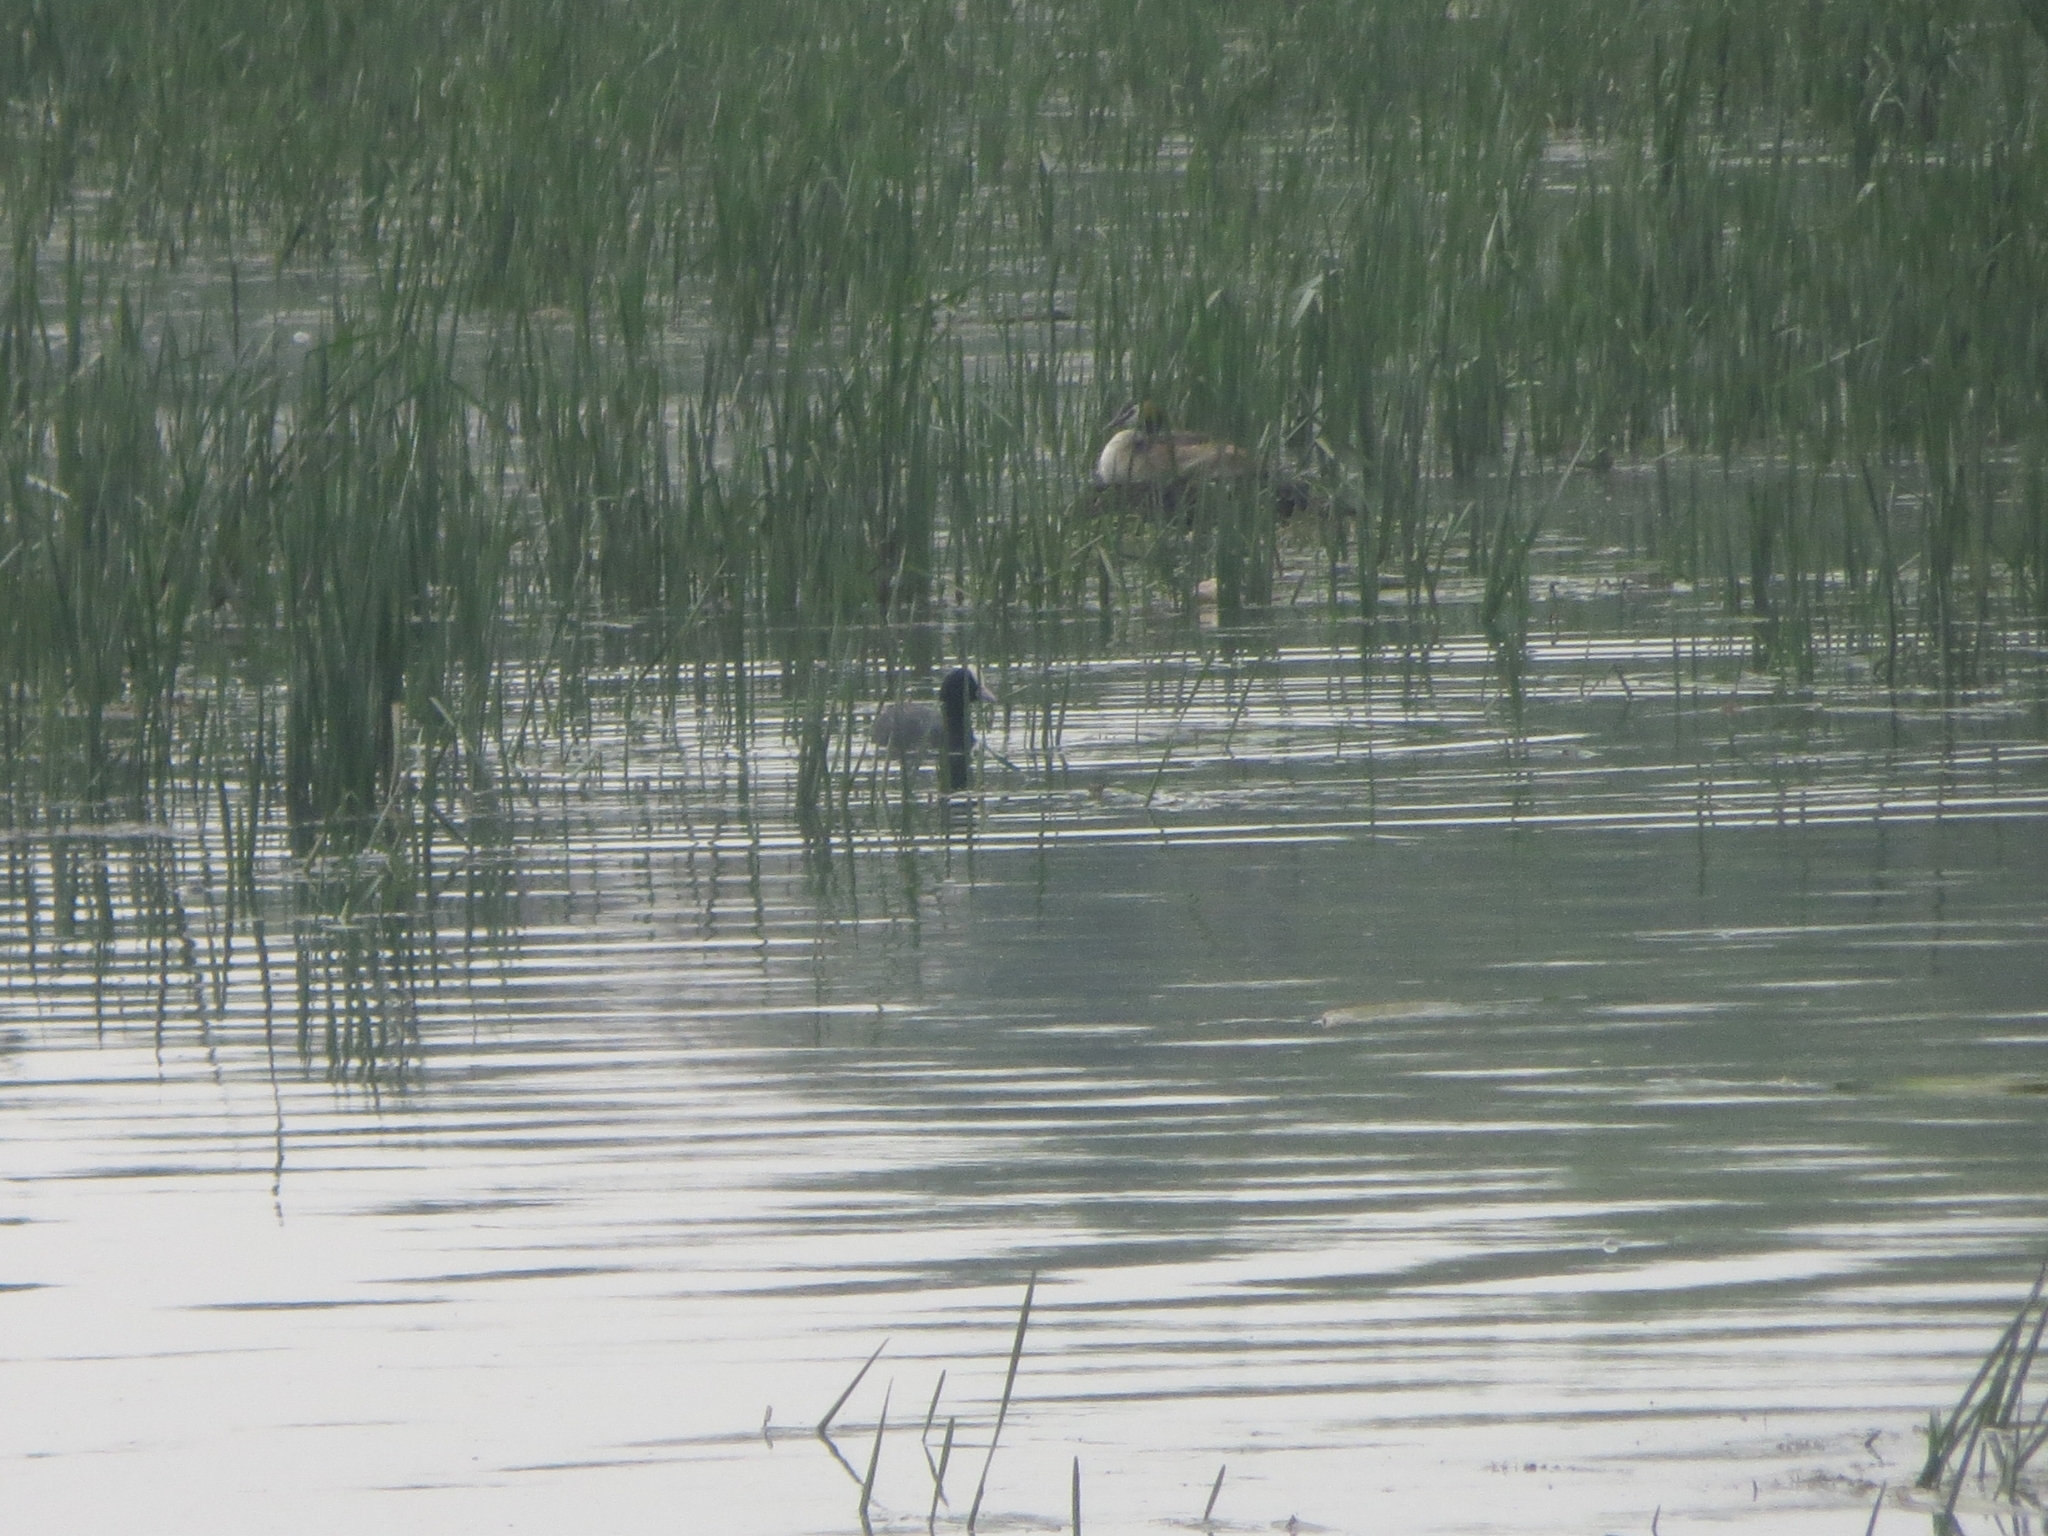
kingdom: Animalia
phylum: Chordata
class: Aves
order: Gruiformes
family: Rallidae
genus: Fulica
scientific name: Fulica atra
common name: Eurasian coot
